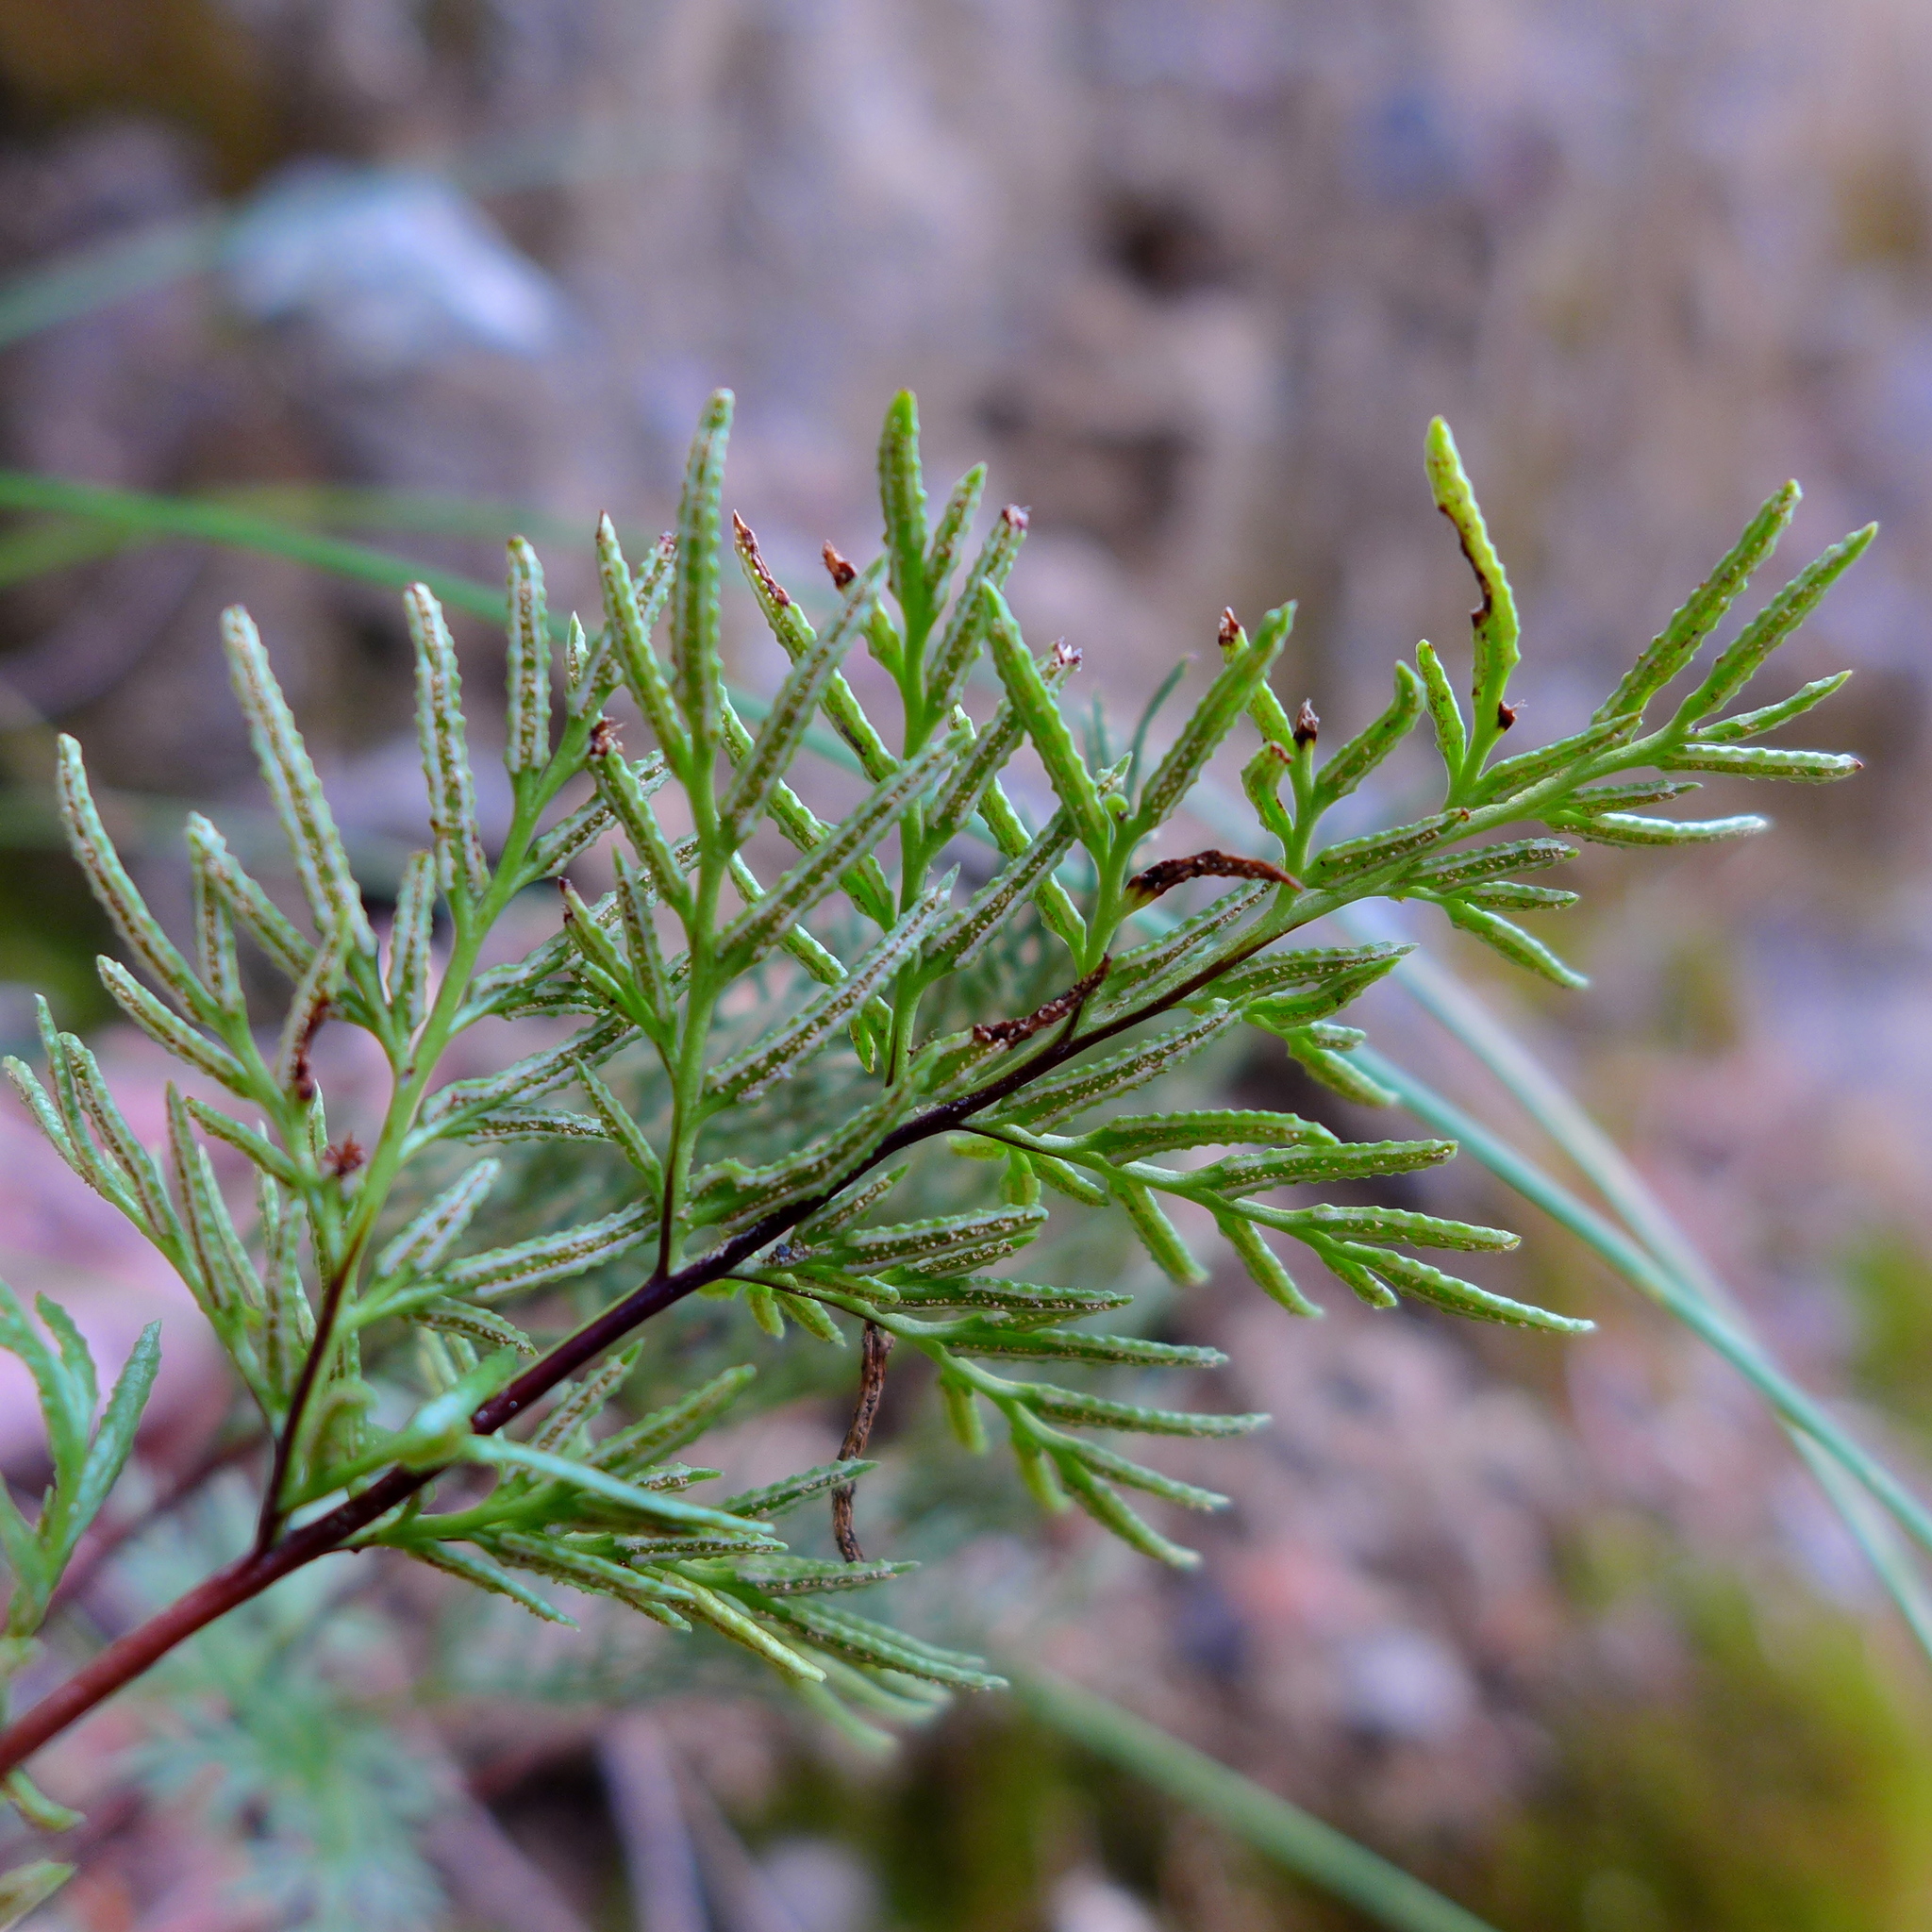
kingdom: Plantae
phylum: Tracheophyta
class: Polypodiopsida
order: Polypodiales
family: Pteridaceae
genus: Aspidotis
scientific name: Aspidotis densa
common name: Indian's dream
